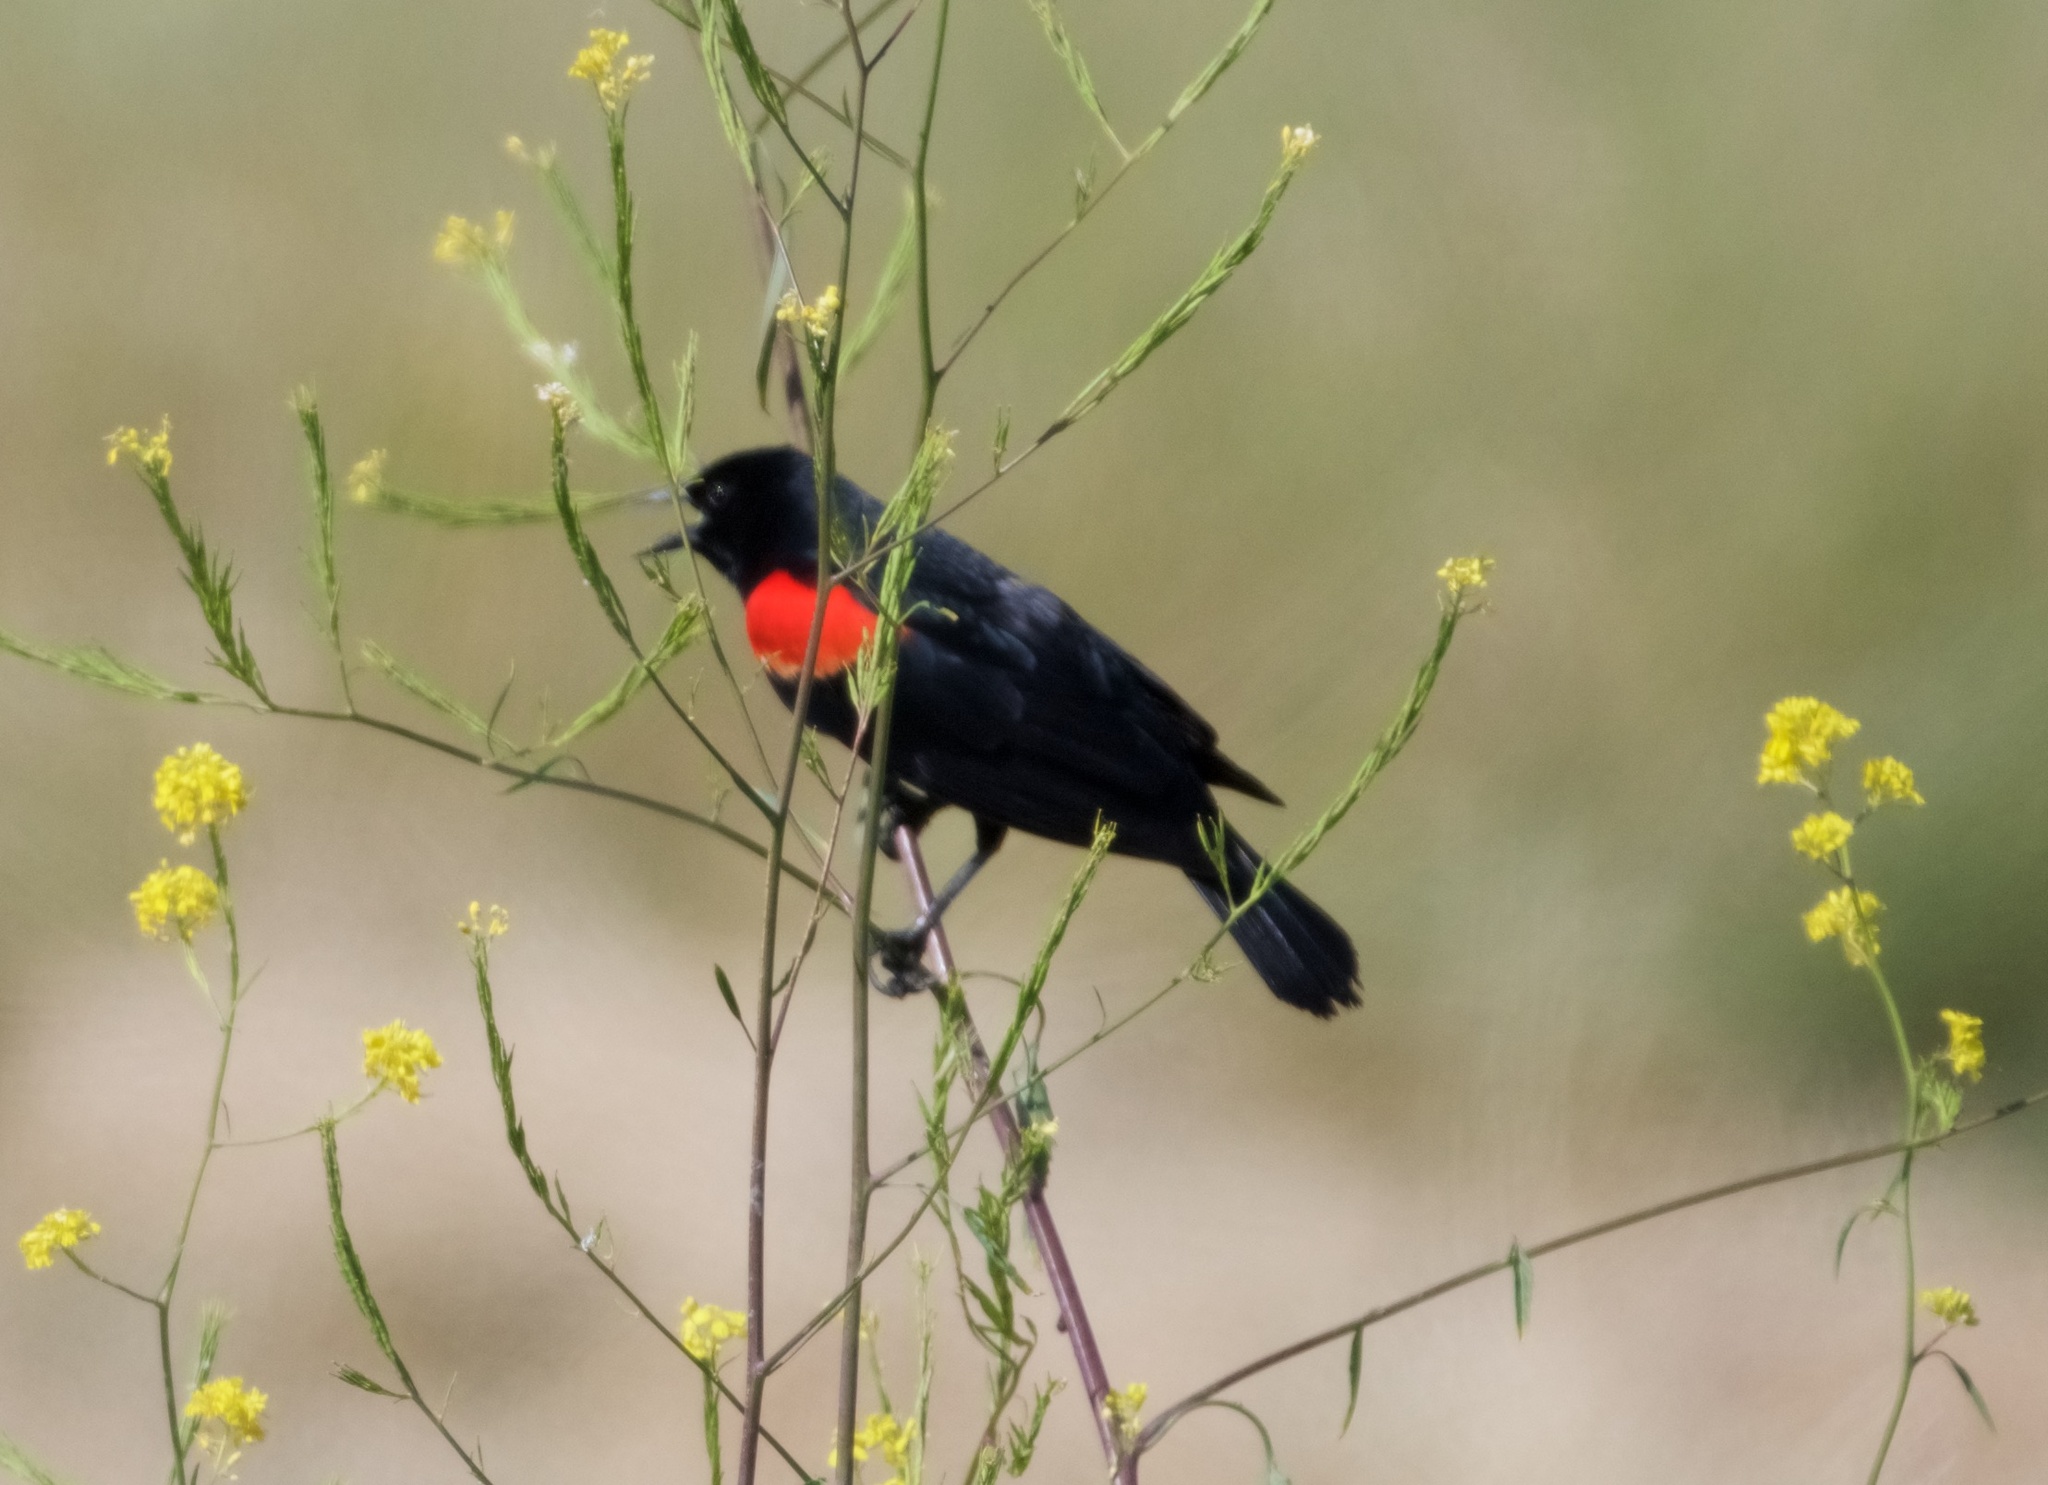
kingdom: Animalia
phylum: Chordata
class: Aves
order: Passeriformes
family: Icteridae
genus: Agelaius
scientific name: Agelaius phoeniceus
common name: Red-winged blackbird
